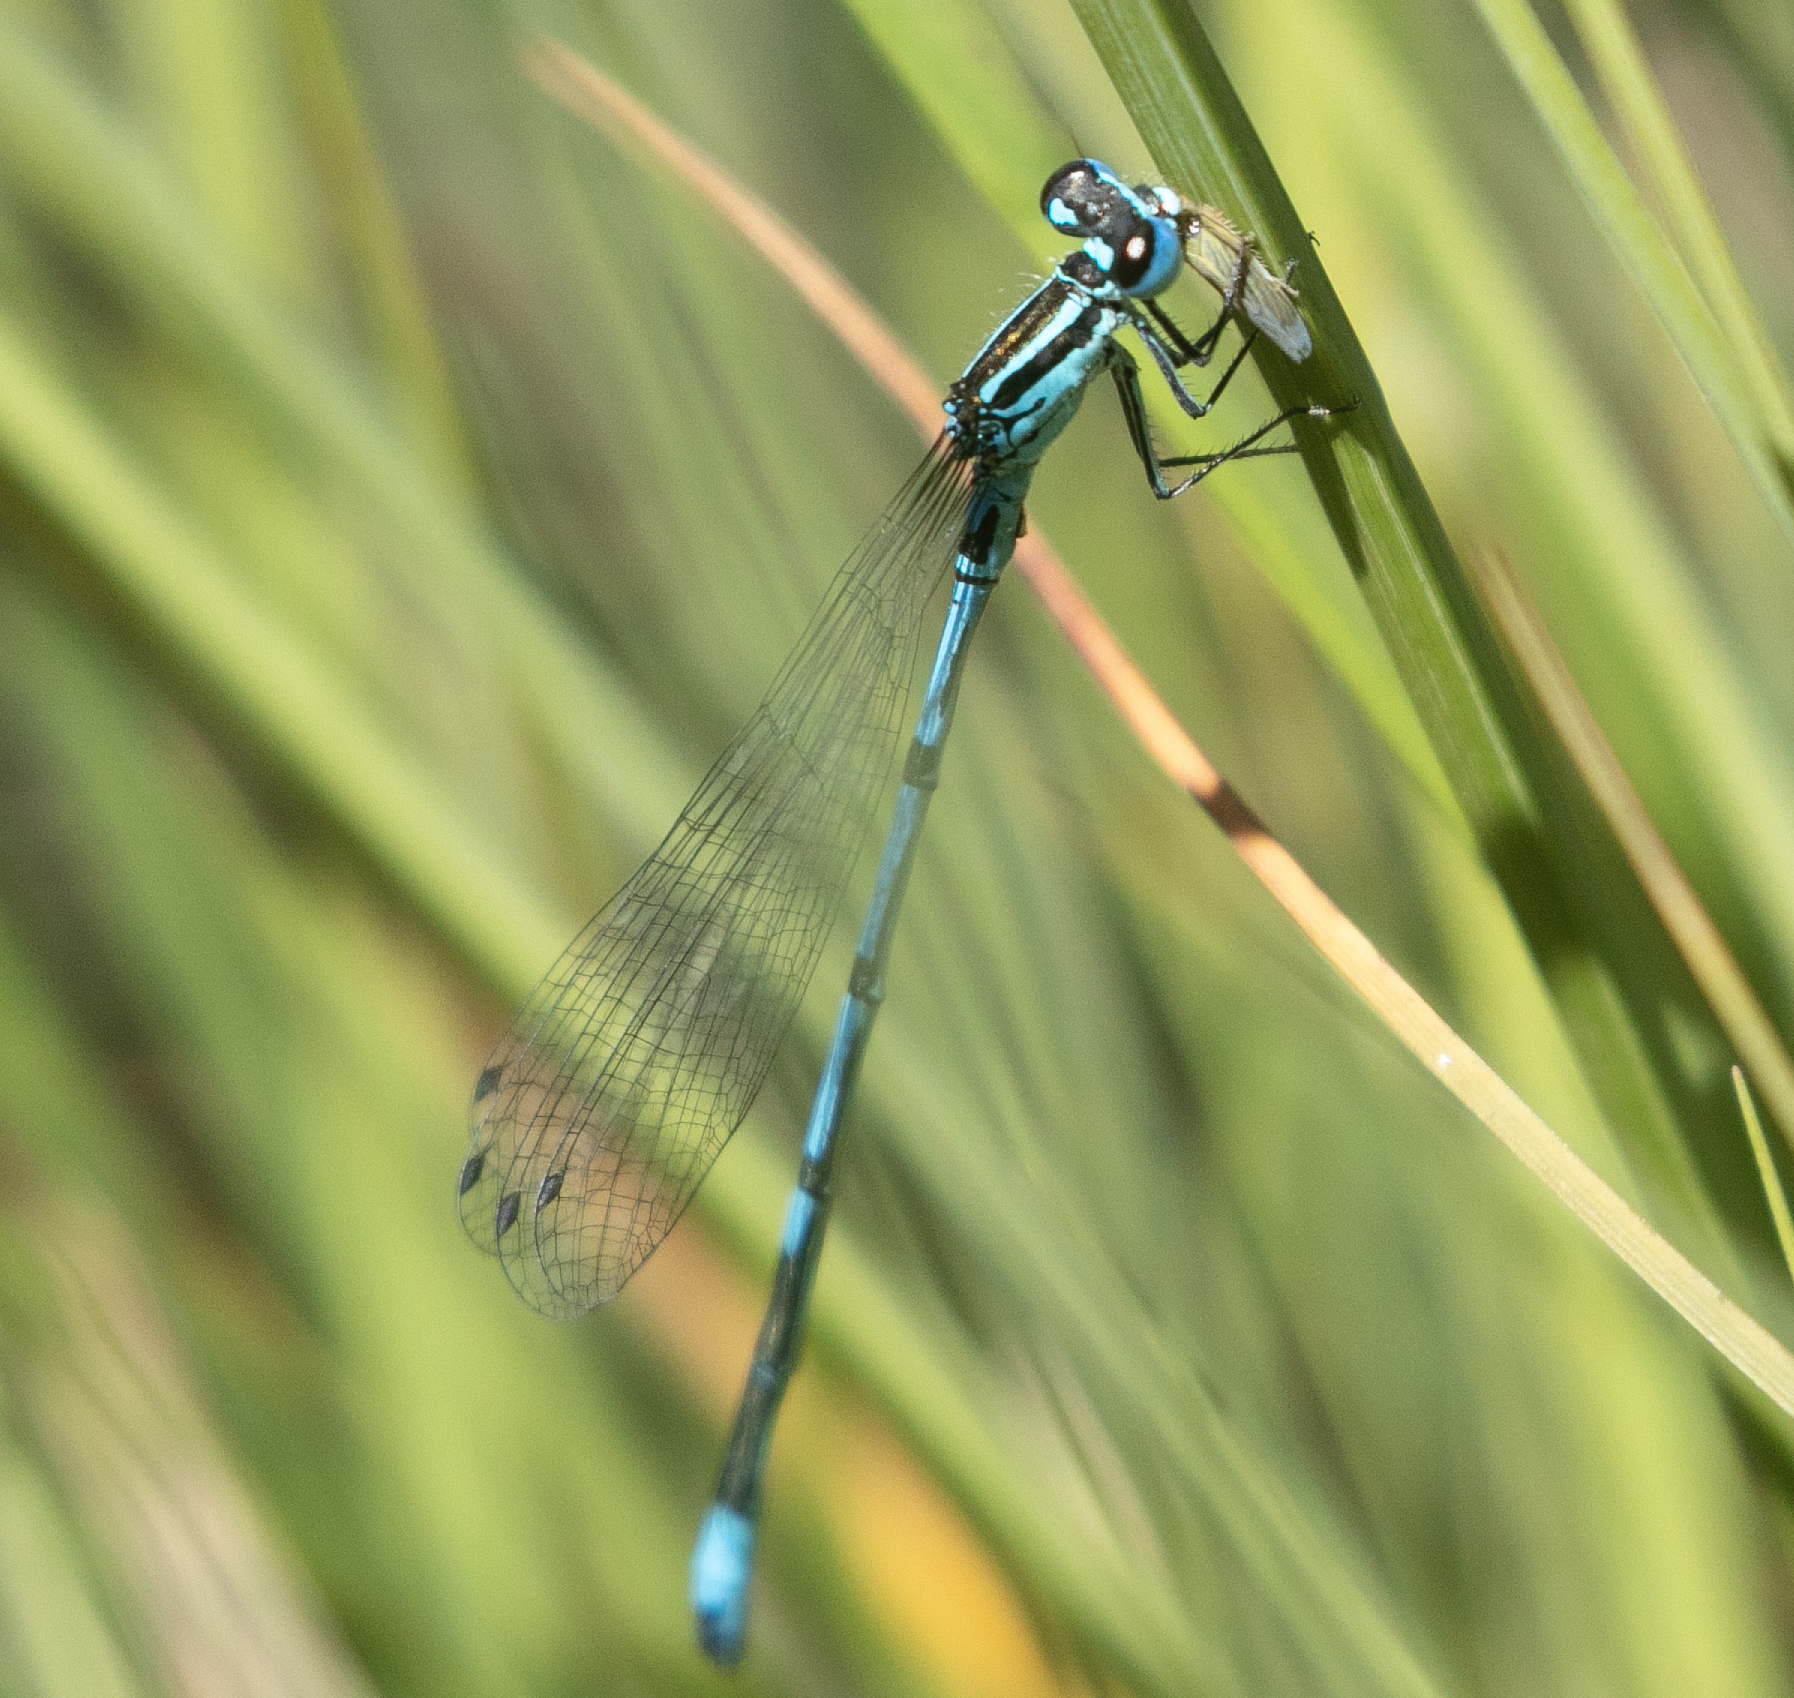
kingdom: Animalia
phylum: Arthropoda
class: Insecta
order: Odonata
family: Coenagrionidae
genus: Coenagrion
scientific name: Coenagrion puella
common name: Azure damselfly
